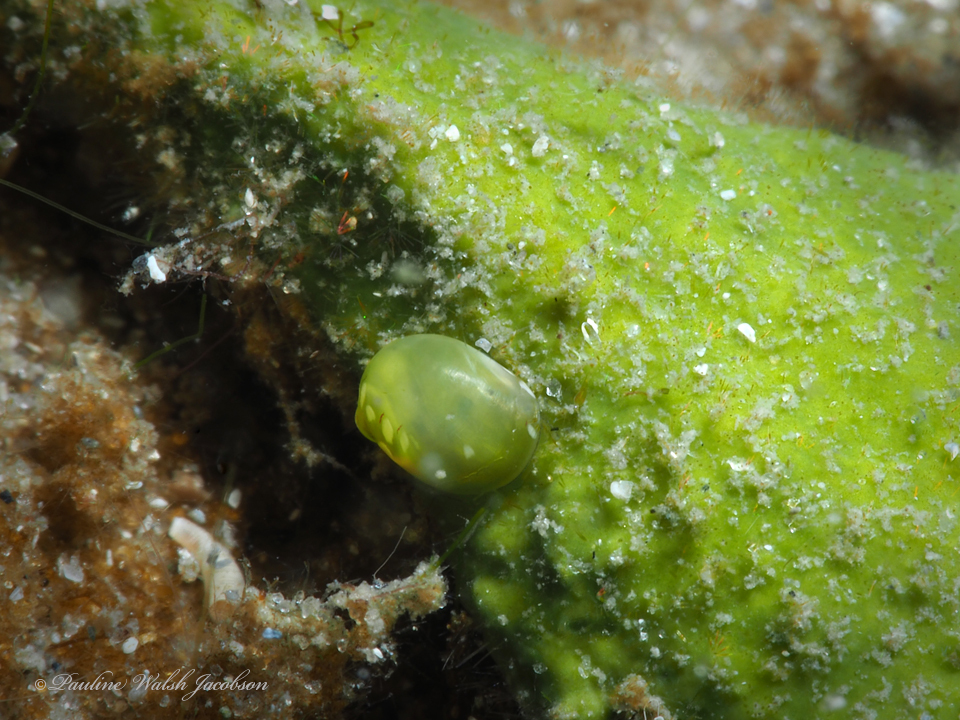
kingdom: Animalia
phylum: Mollusca
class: Gastropoda
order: Cycloneritida
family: Neritidae
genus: Smaragdia
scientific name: Smaragdia viridis
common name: Emerald nerite
